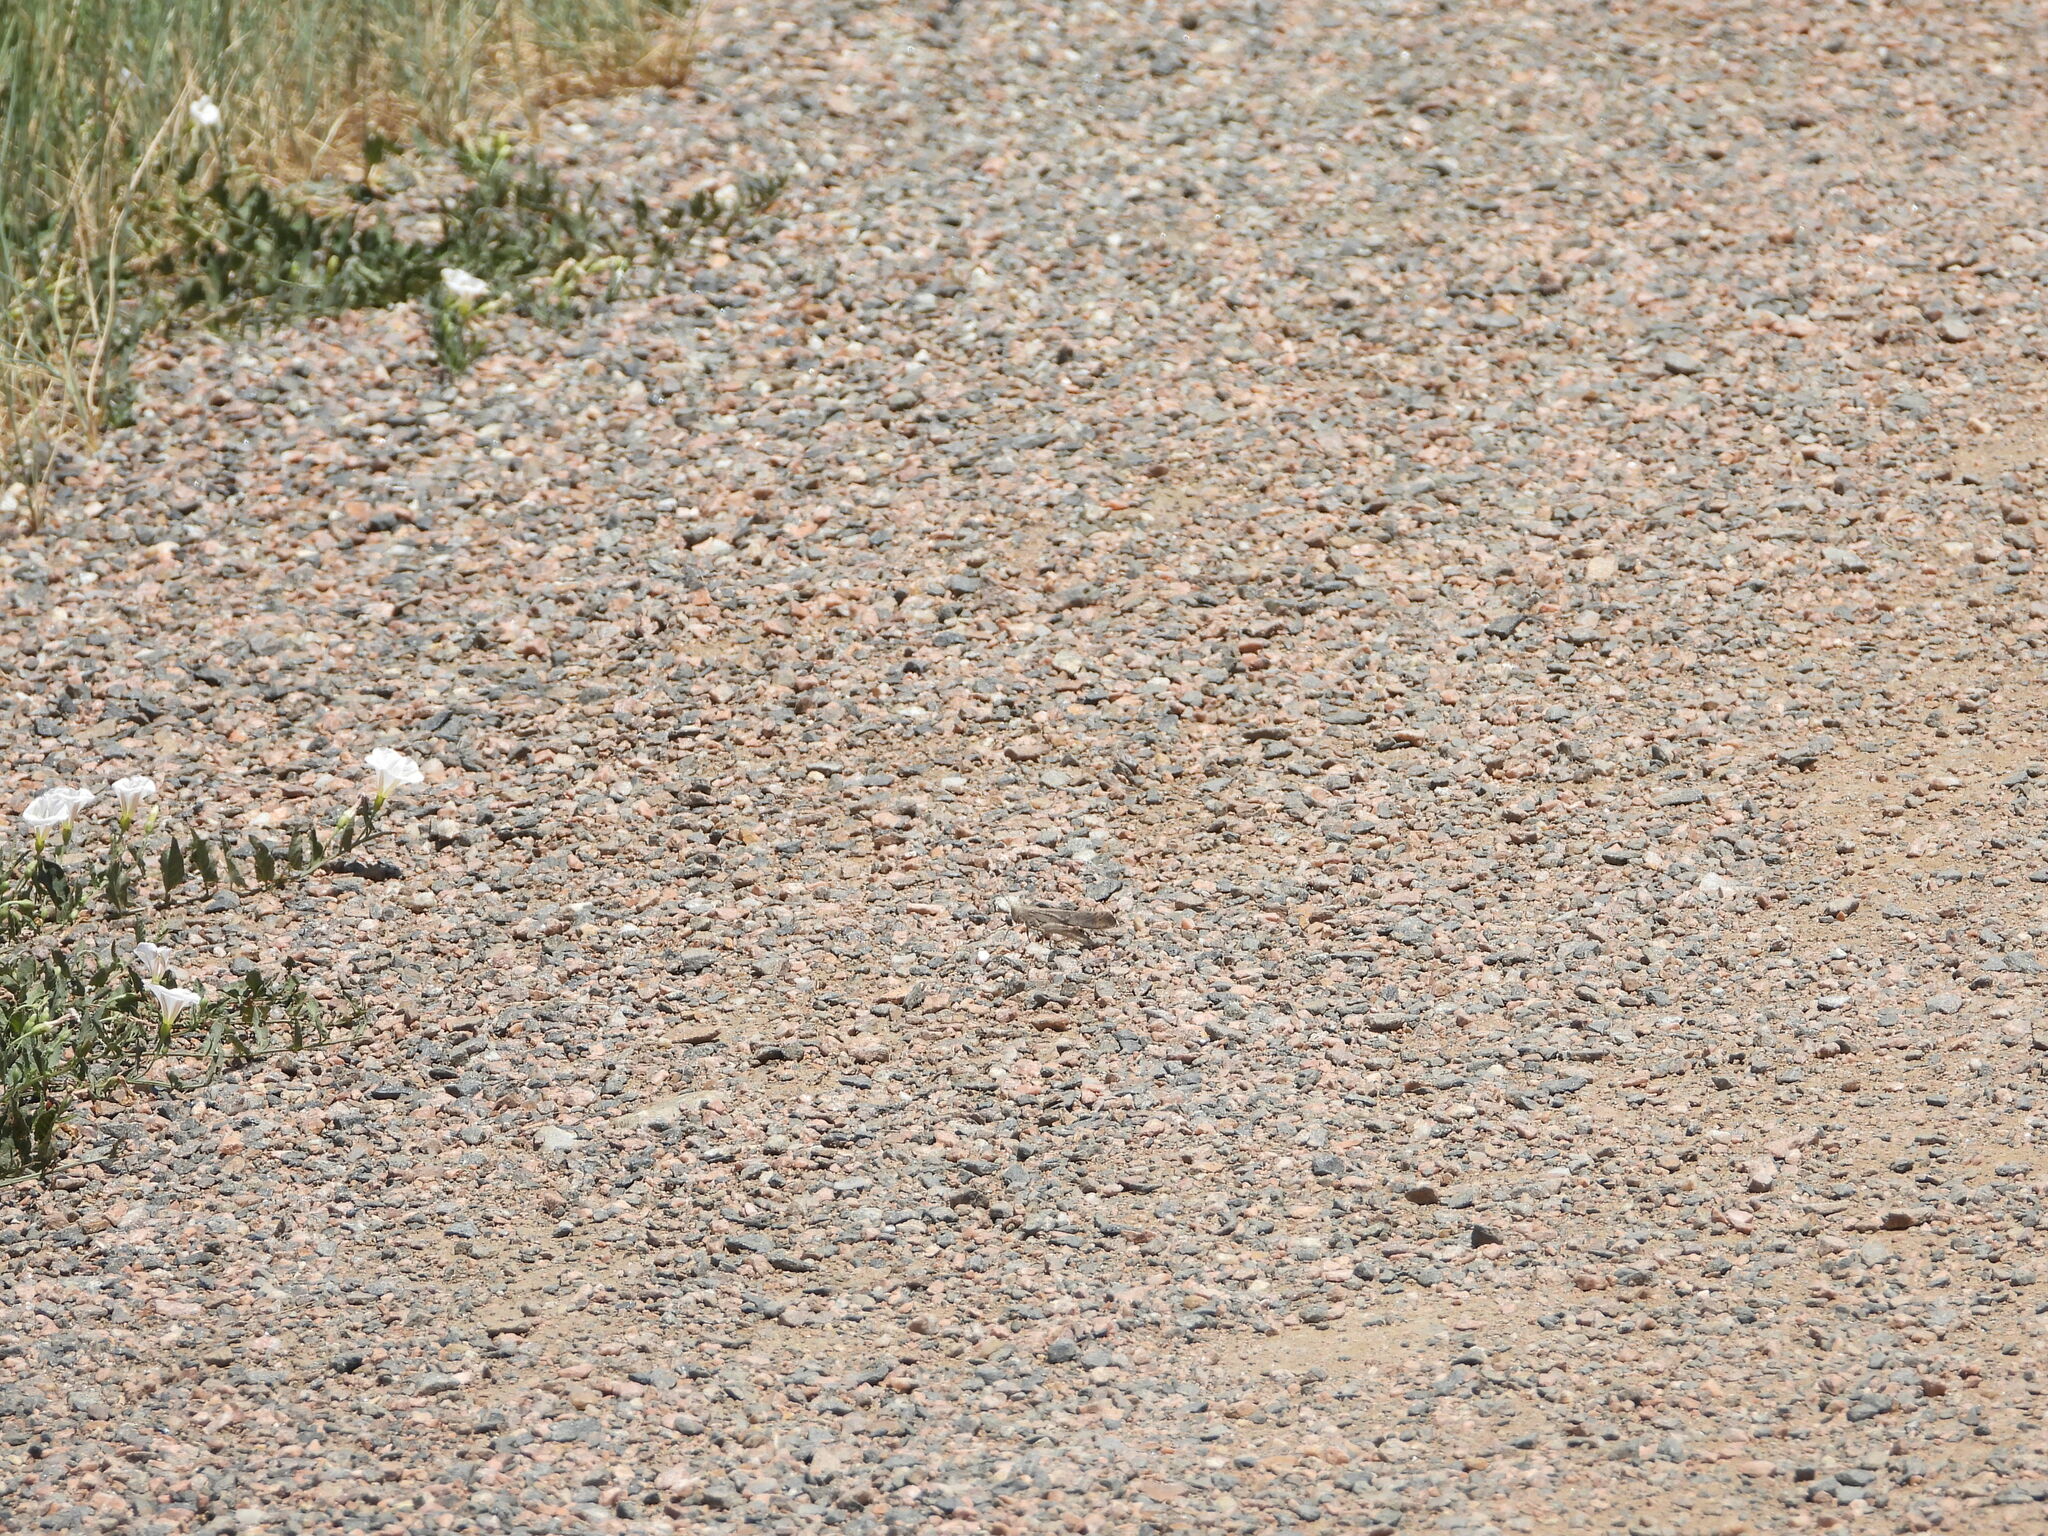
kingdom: Animalia
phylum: Arthropoda
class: Insecta
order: Orthoptera
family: Acrididae
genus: Dissosteira
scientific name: Dissosteira carolina
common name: Carolina grasshopper
